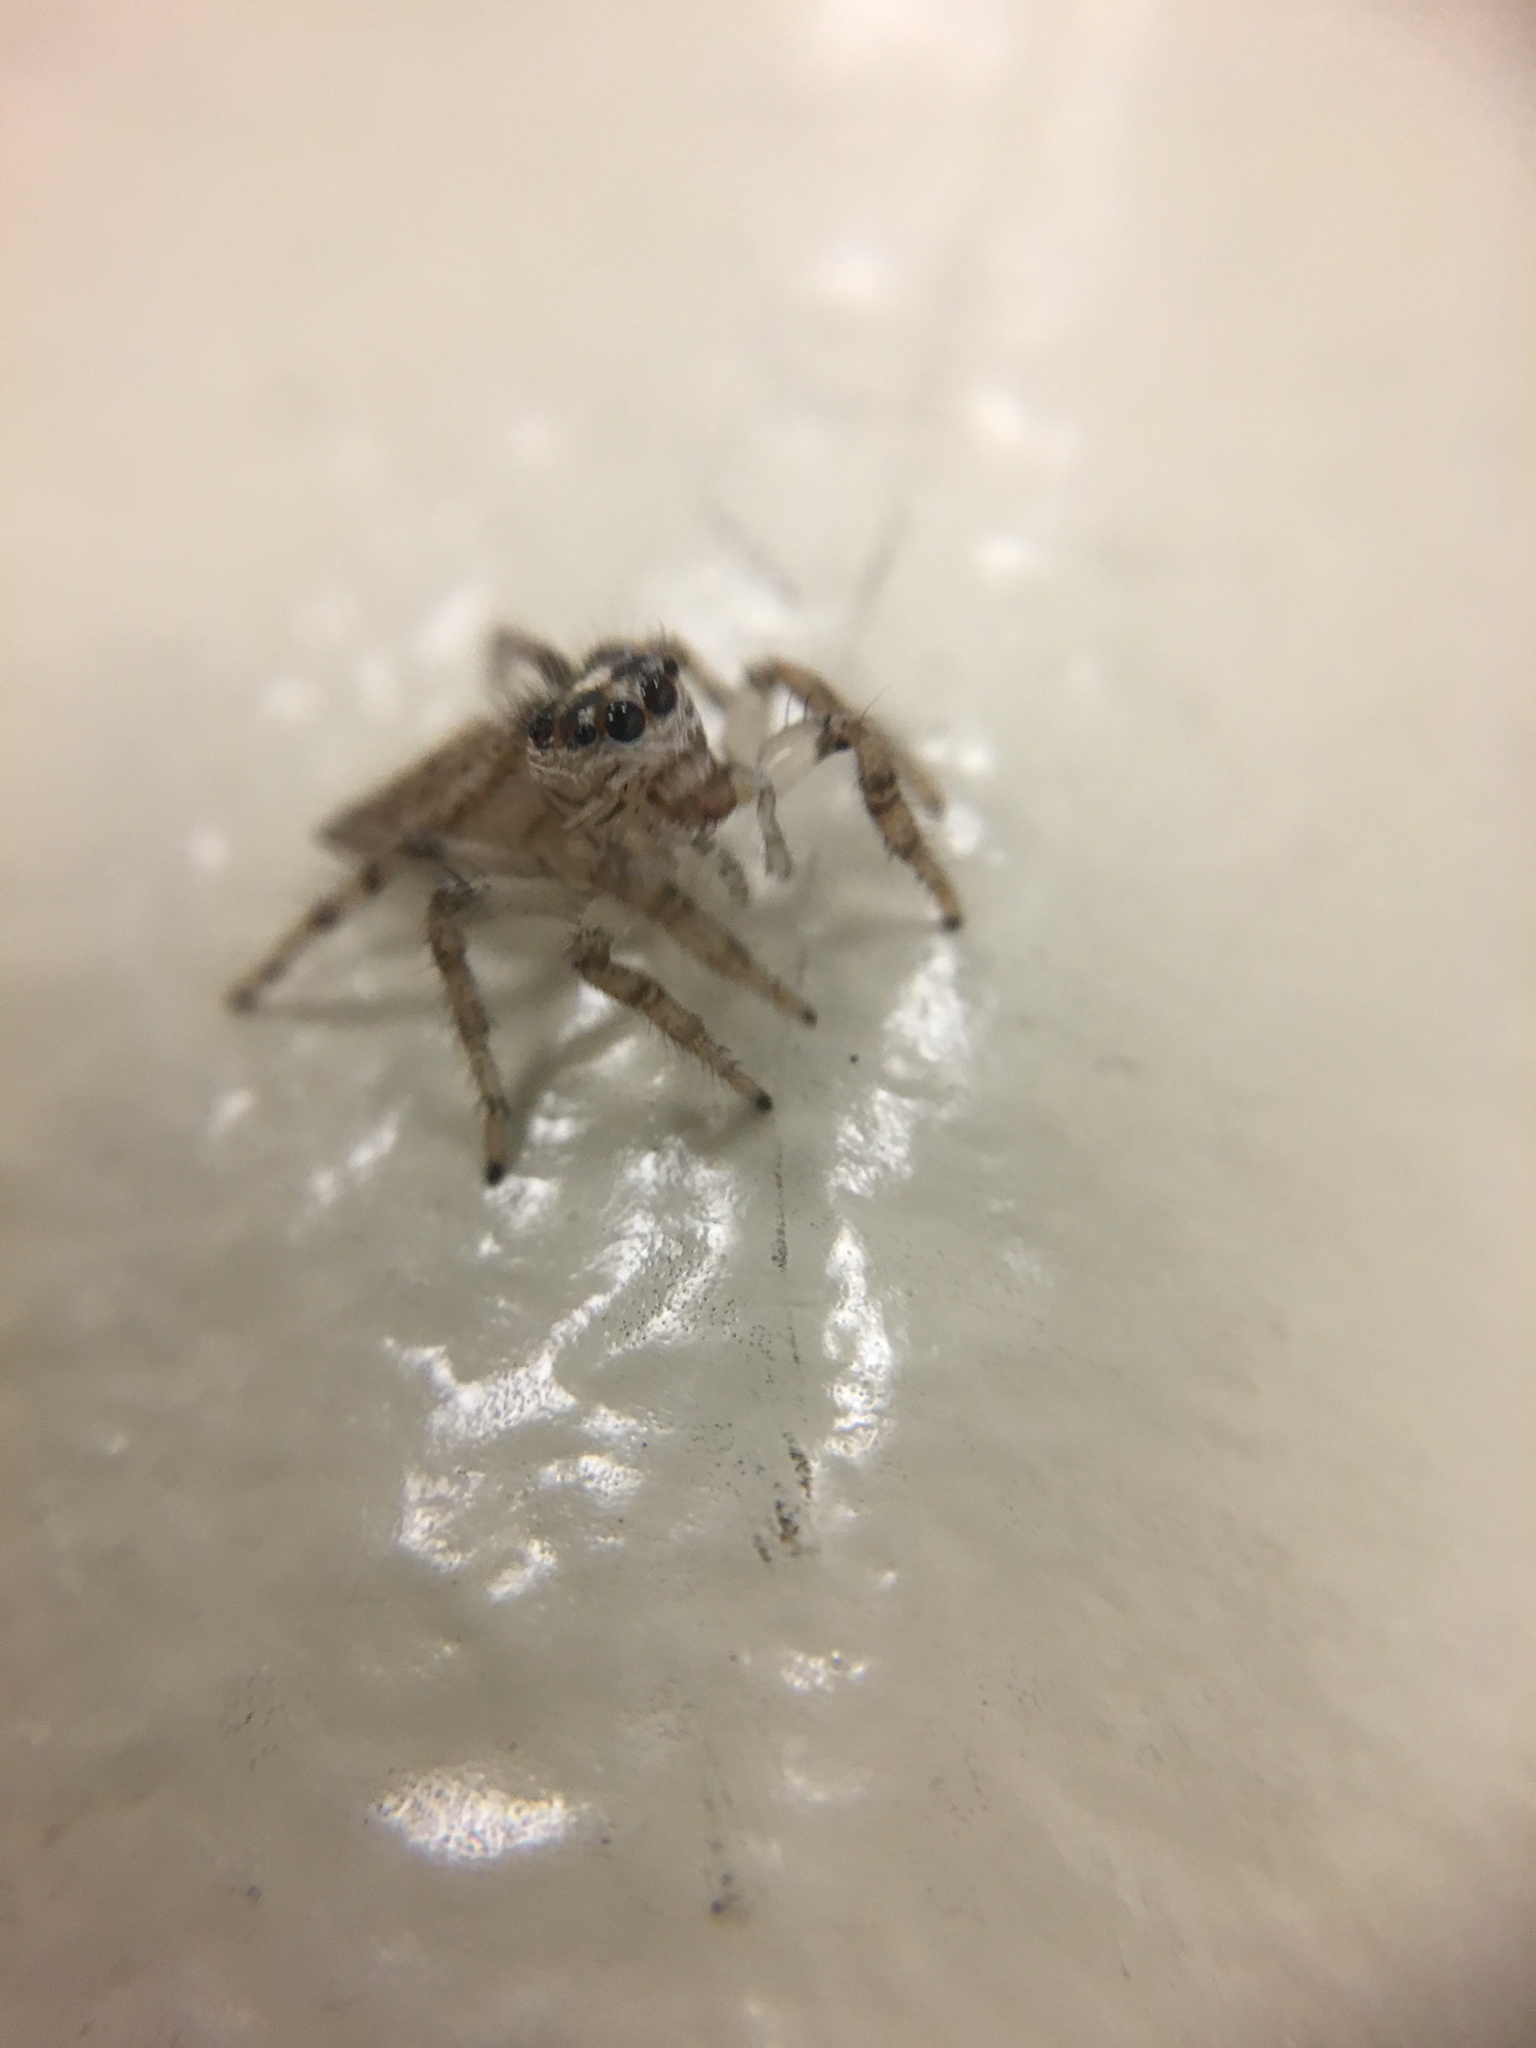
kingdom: Animalia
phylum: Arthropoda
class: Arachnida
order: Araneae
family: Salticidae
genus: Colonus
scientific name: Colonus hesperus
